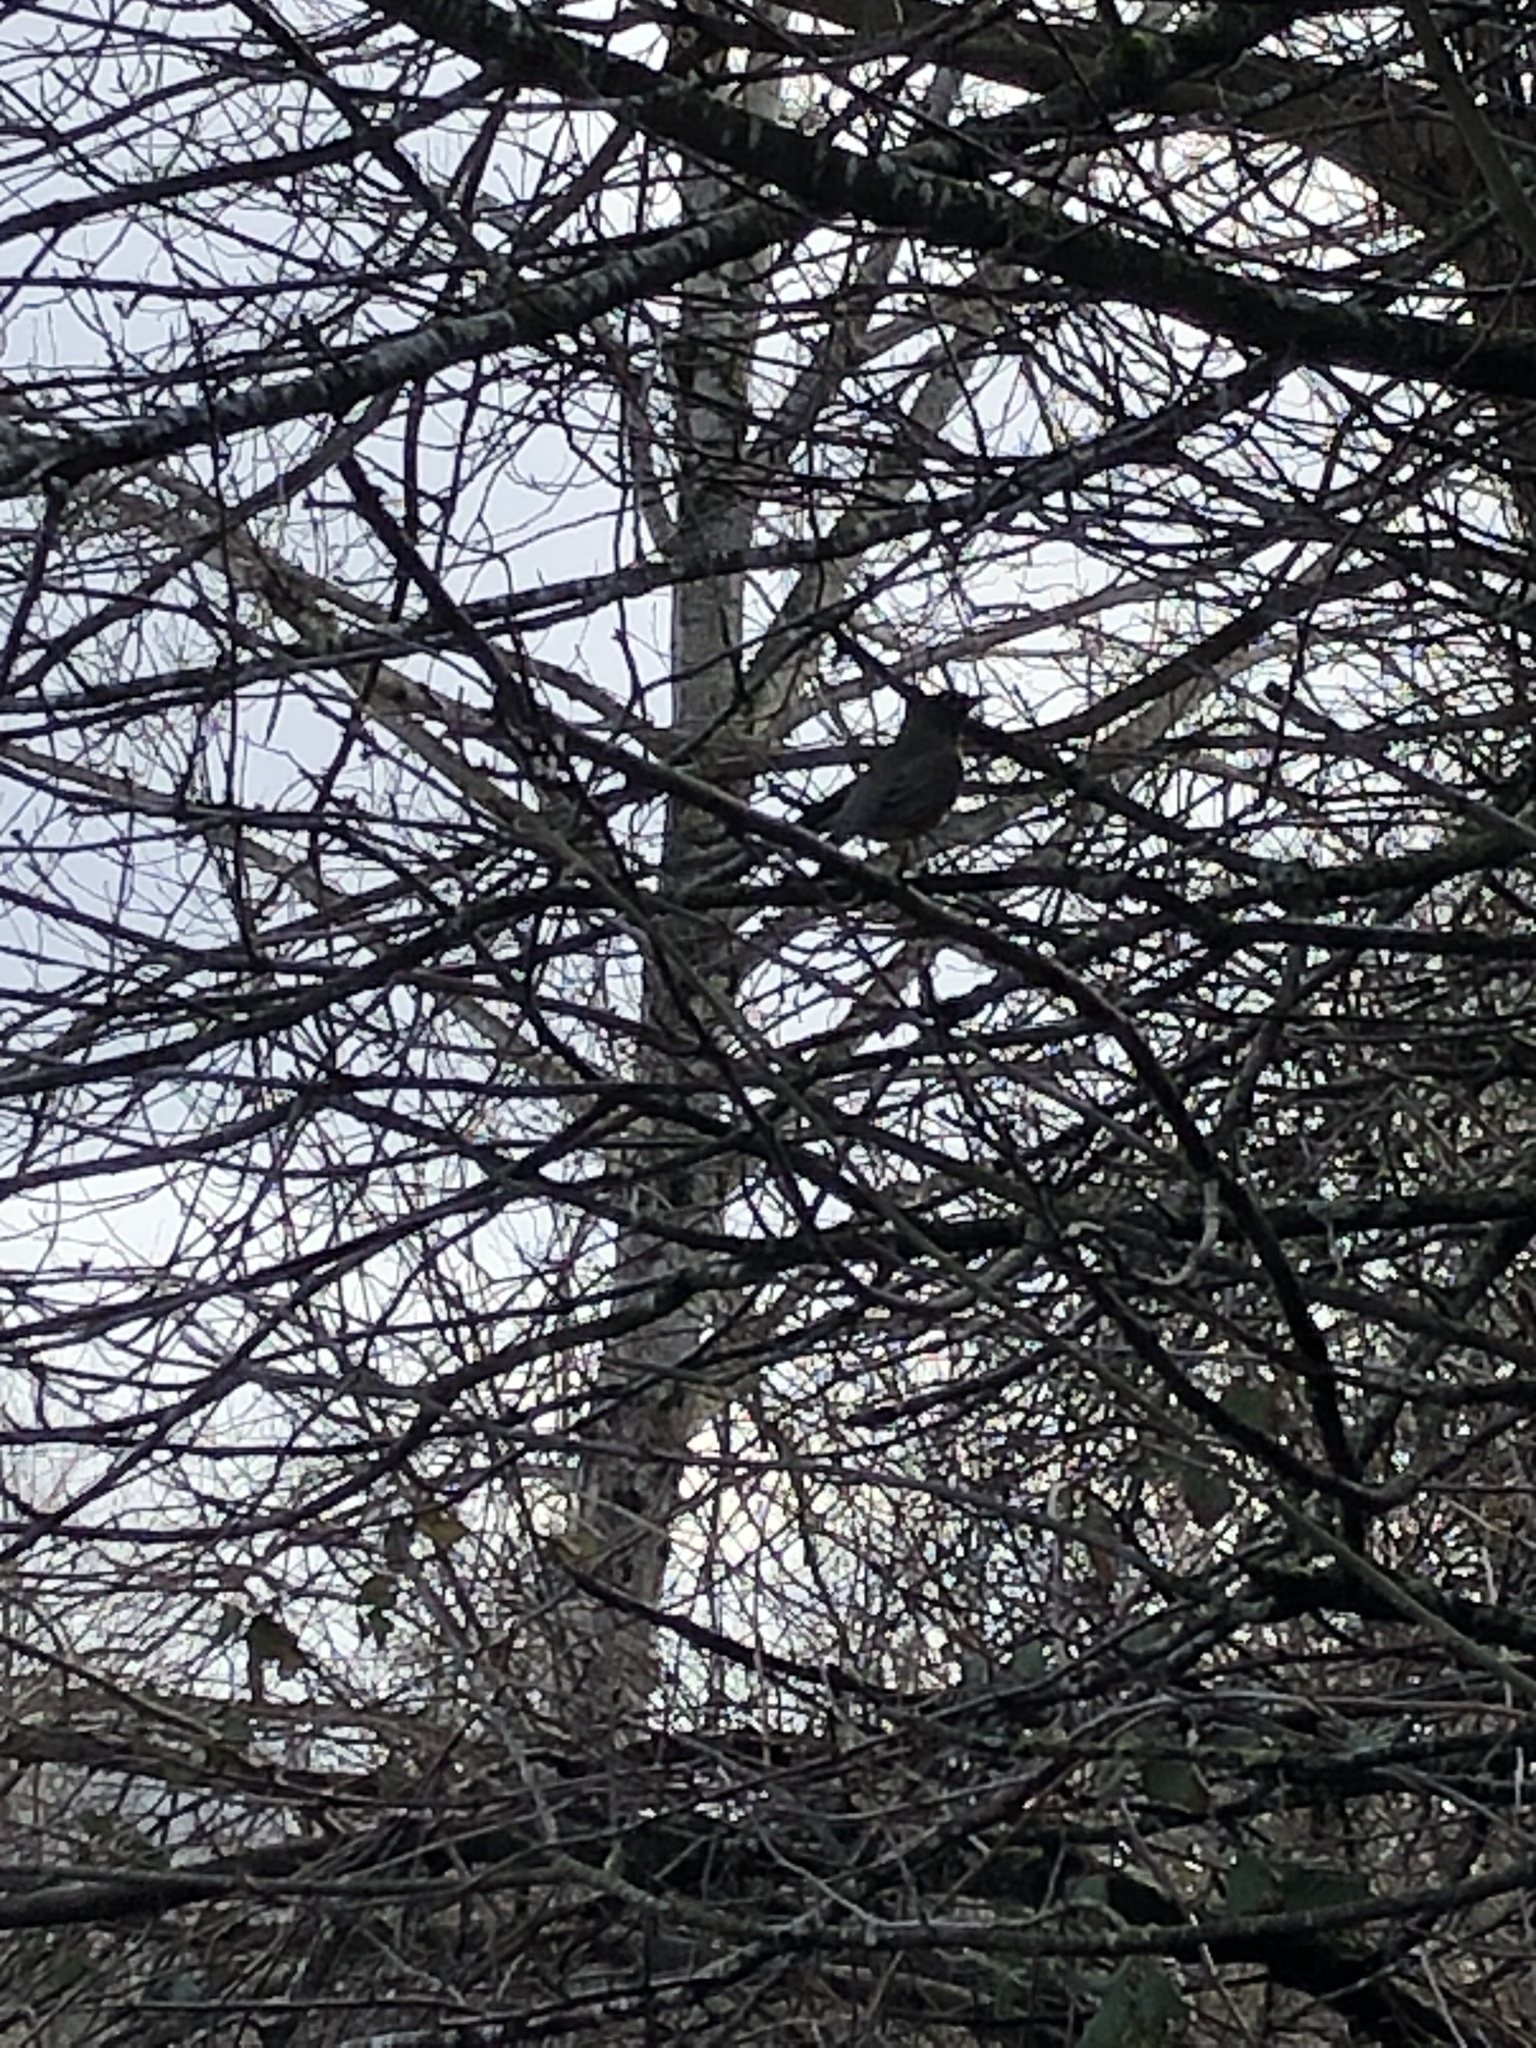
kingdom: Animalia
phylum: Chordata
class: Aves
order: Passeriformes
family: Turdidae
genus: Turdus
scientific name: Turdus migratorius
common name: American robin
